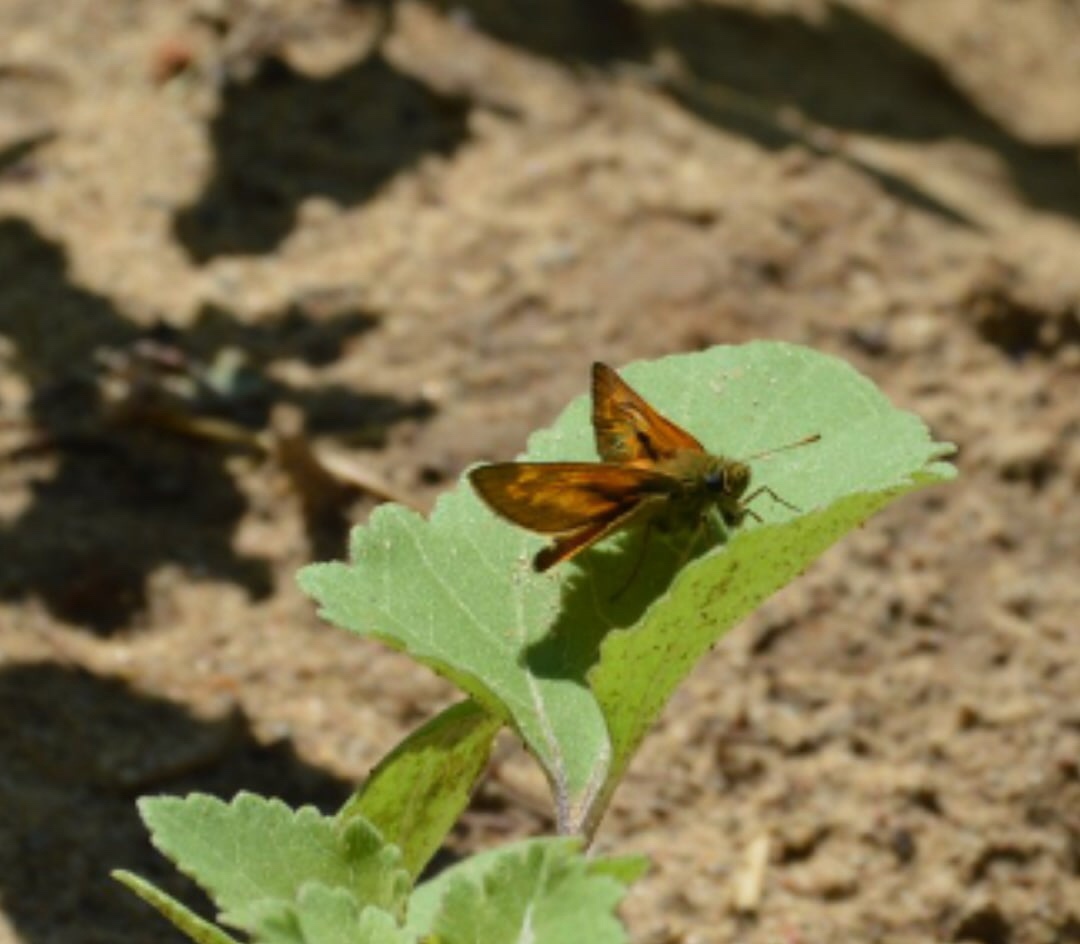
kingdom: Animalia
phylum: Arthropoda
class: Insecta
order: Lepidoptera
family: Hesperiidae
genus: Ochlodes
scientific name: Ochlodes venata
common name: Large skipper
